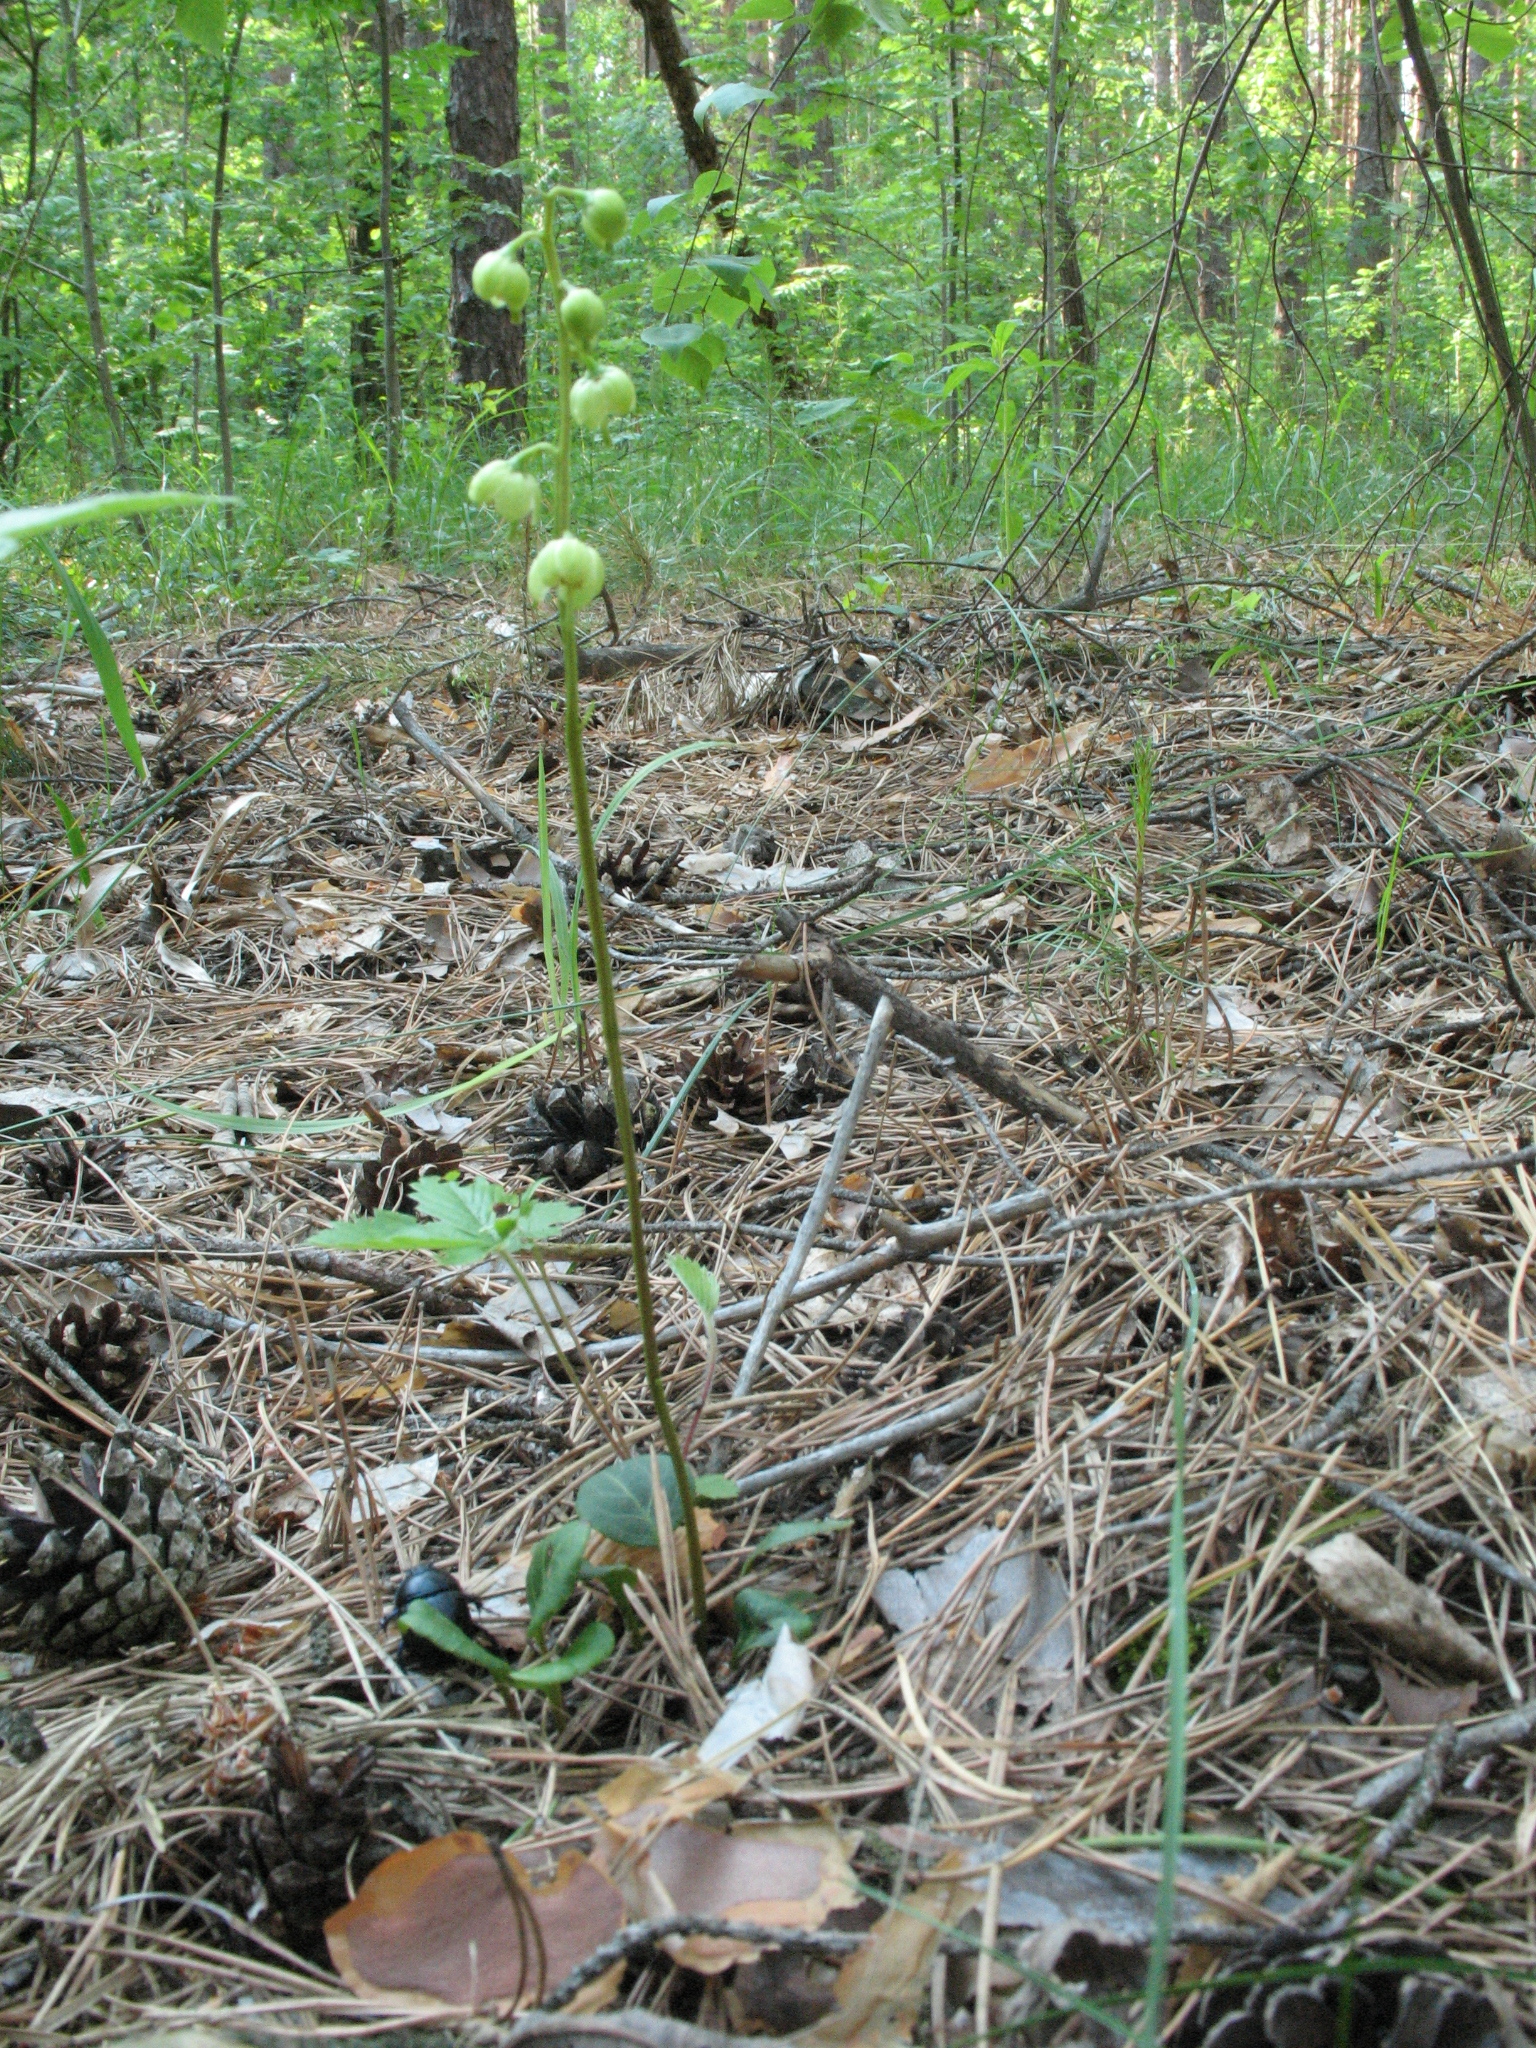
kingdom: Plantae
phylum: Tracheophyta
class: Magnoliopsida
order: Ericales
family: Ericaceae
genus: Pyrola
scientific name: Pyrola chlorantha
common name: Green wintergreen
